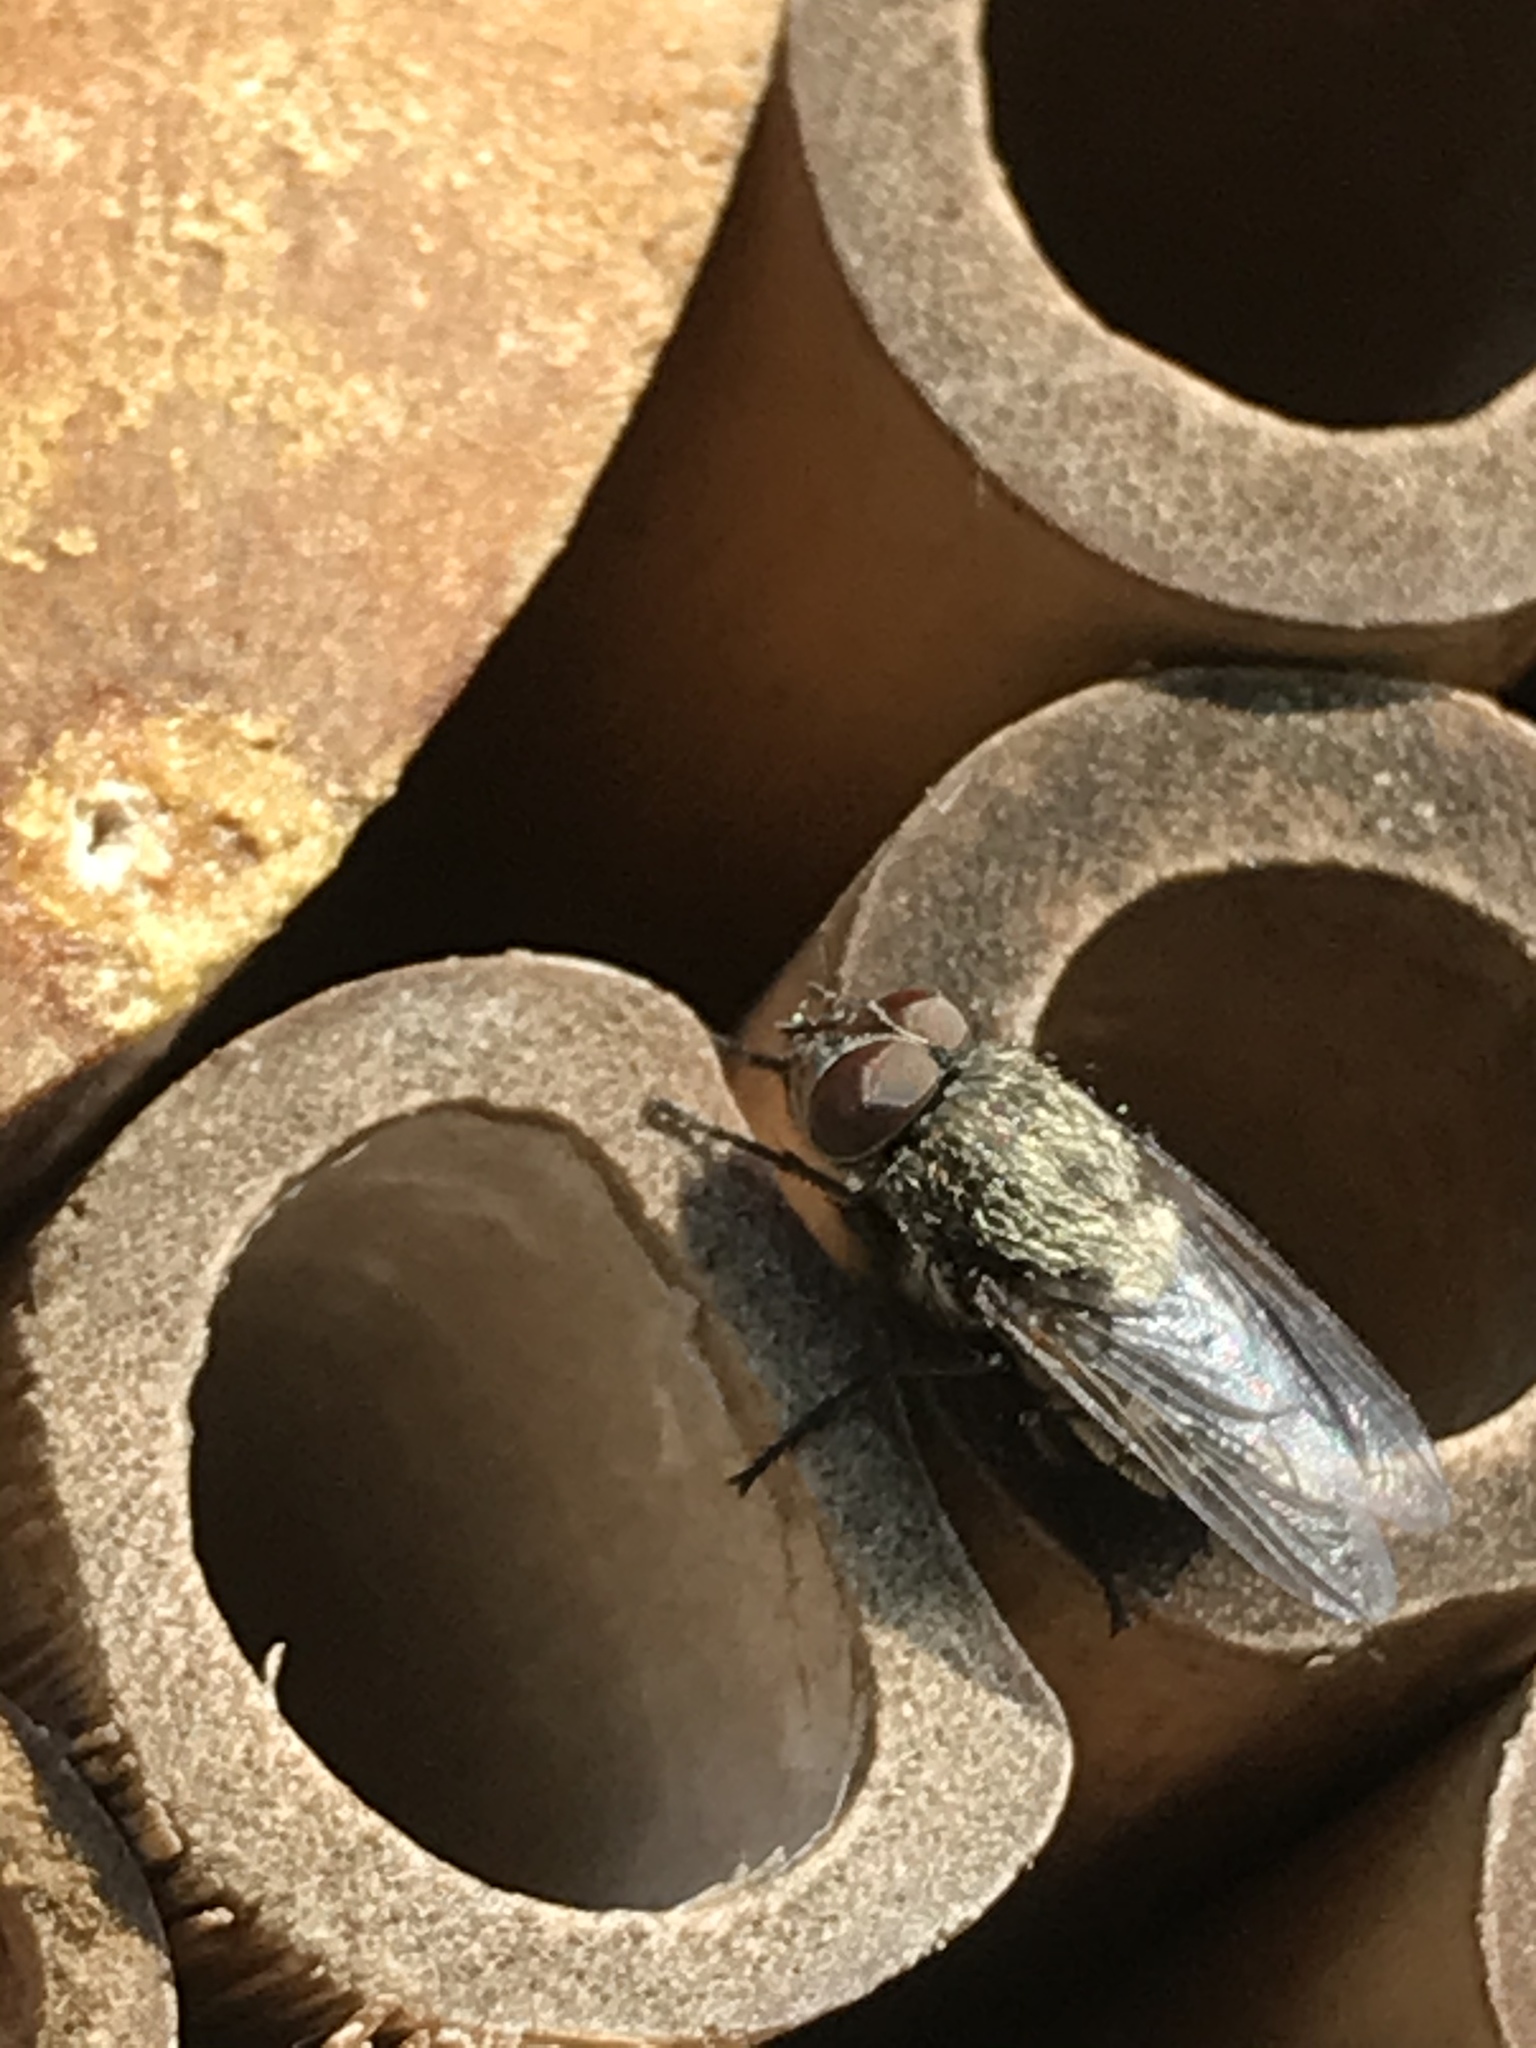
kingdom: Animalia
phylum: Arthropoda
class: Insecta
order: Diptera
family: Polleniidae
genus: Pollenia
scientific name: Pollenia
